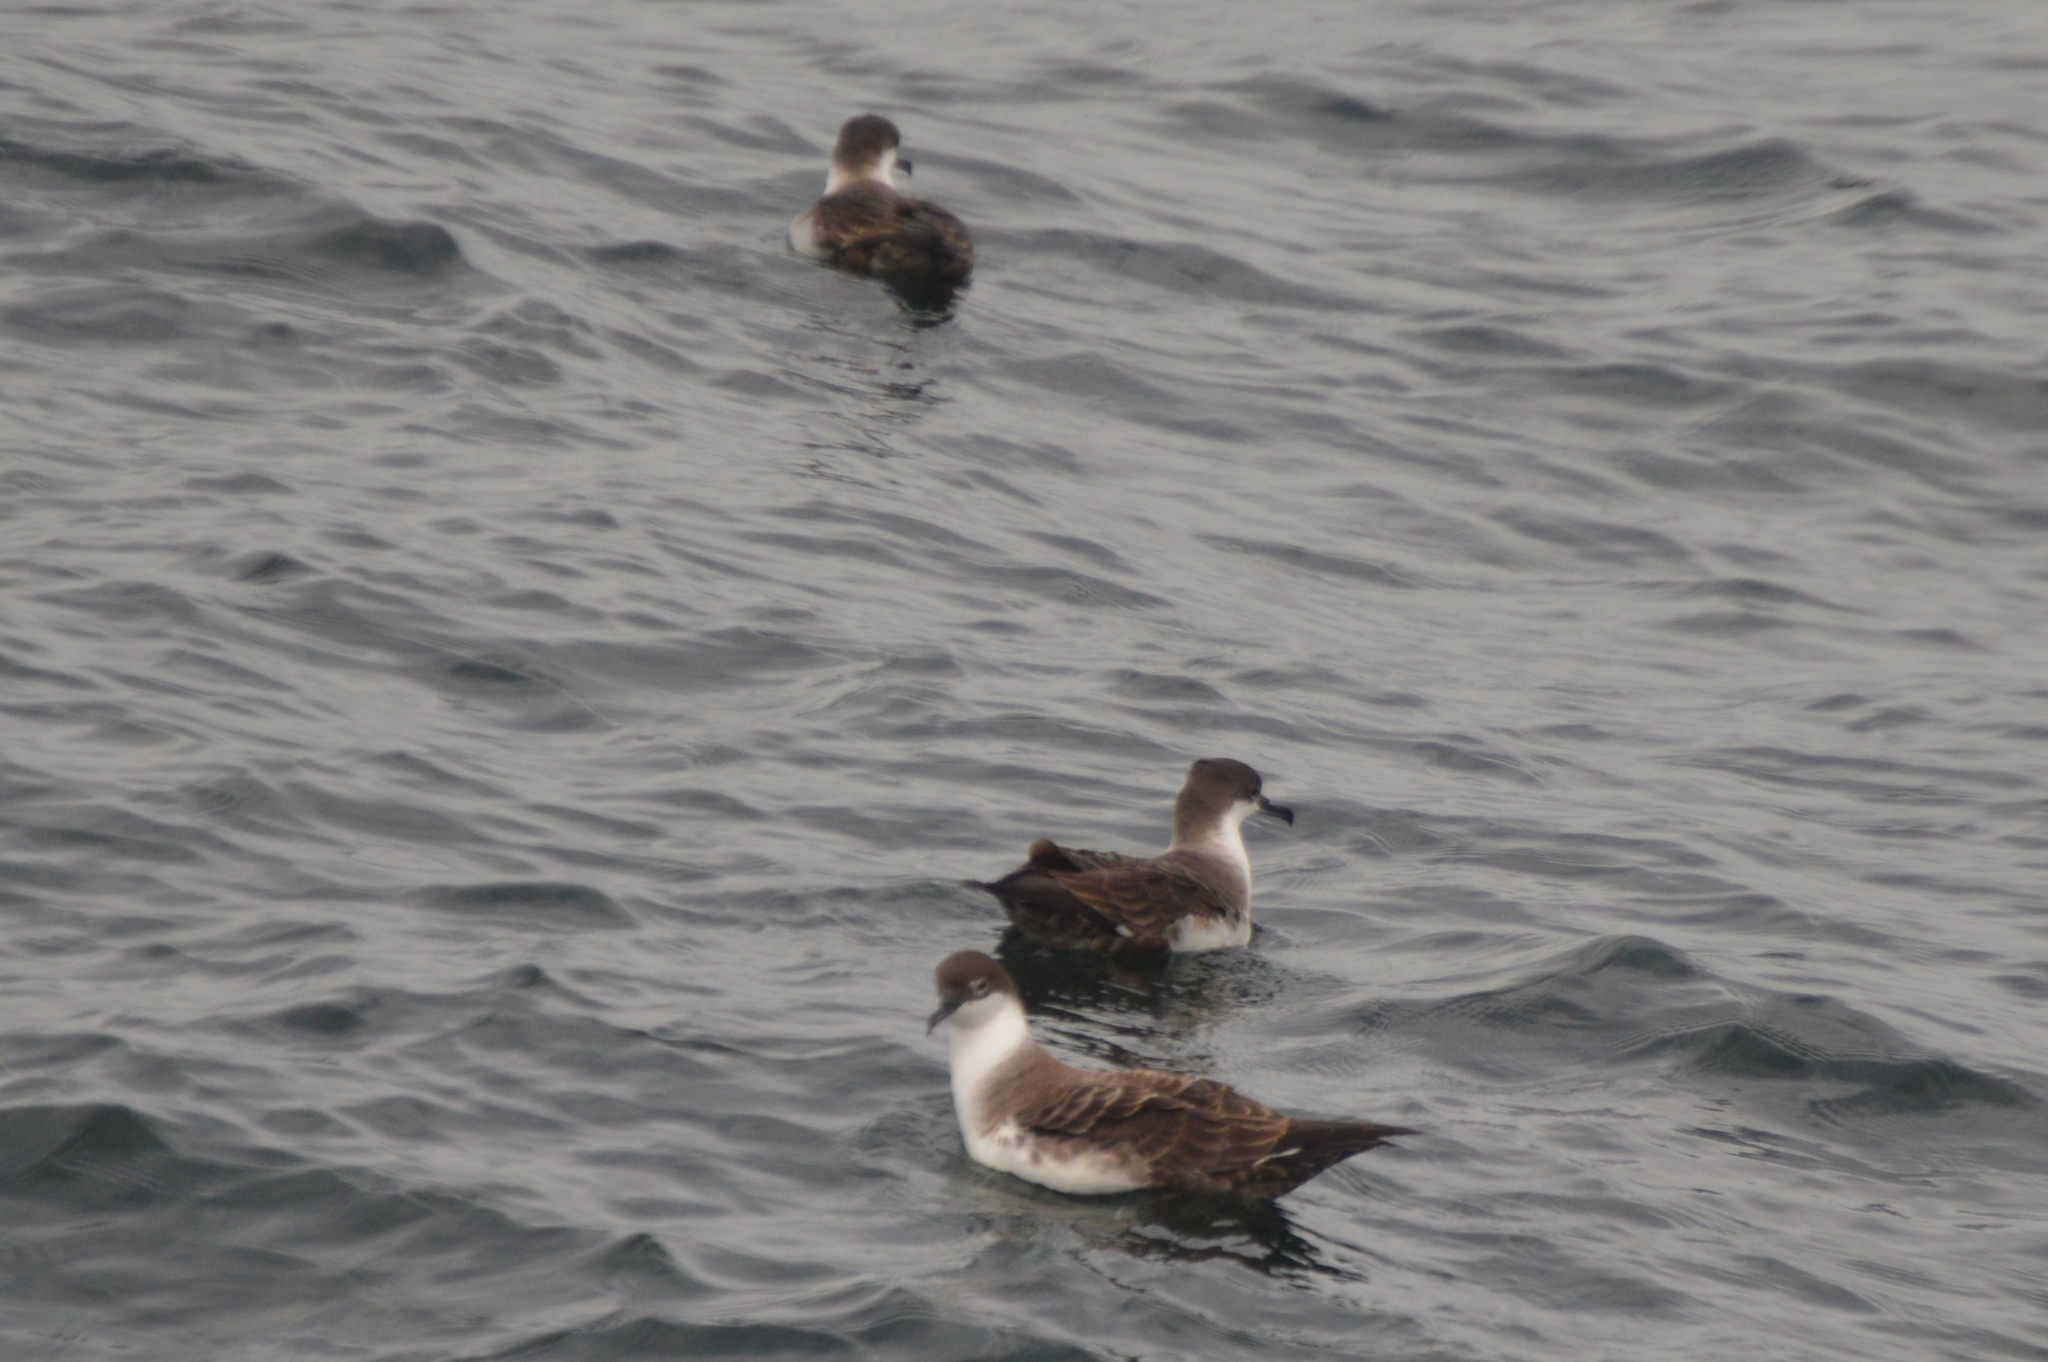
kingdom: Animalia
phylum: Chordata
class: Aves
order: Procellariiformes
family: Procellariidae
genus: Puffinus
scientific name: Puffinus gravis
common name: Great shearwater
